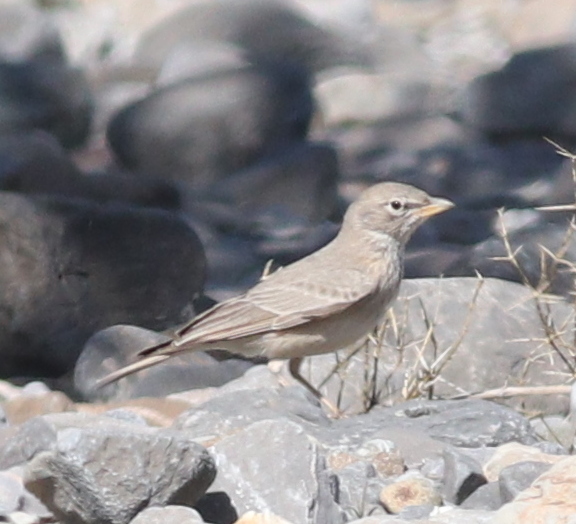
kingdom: Animalia
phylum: Chordata
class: Aves
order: Passeriformes
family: Alaudidae
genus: Ammomanes
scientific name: Ammomanes deserti
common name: Desert lark
